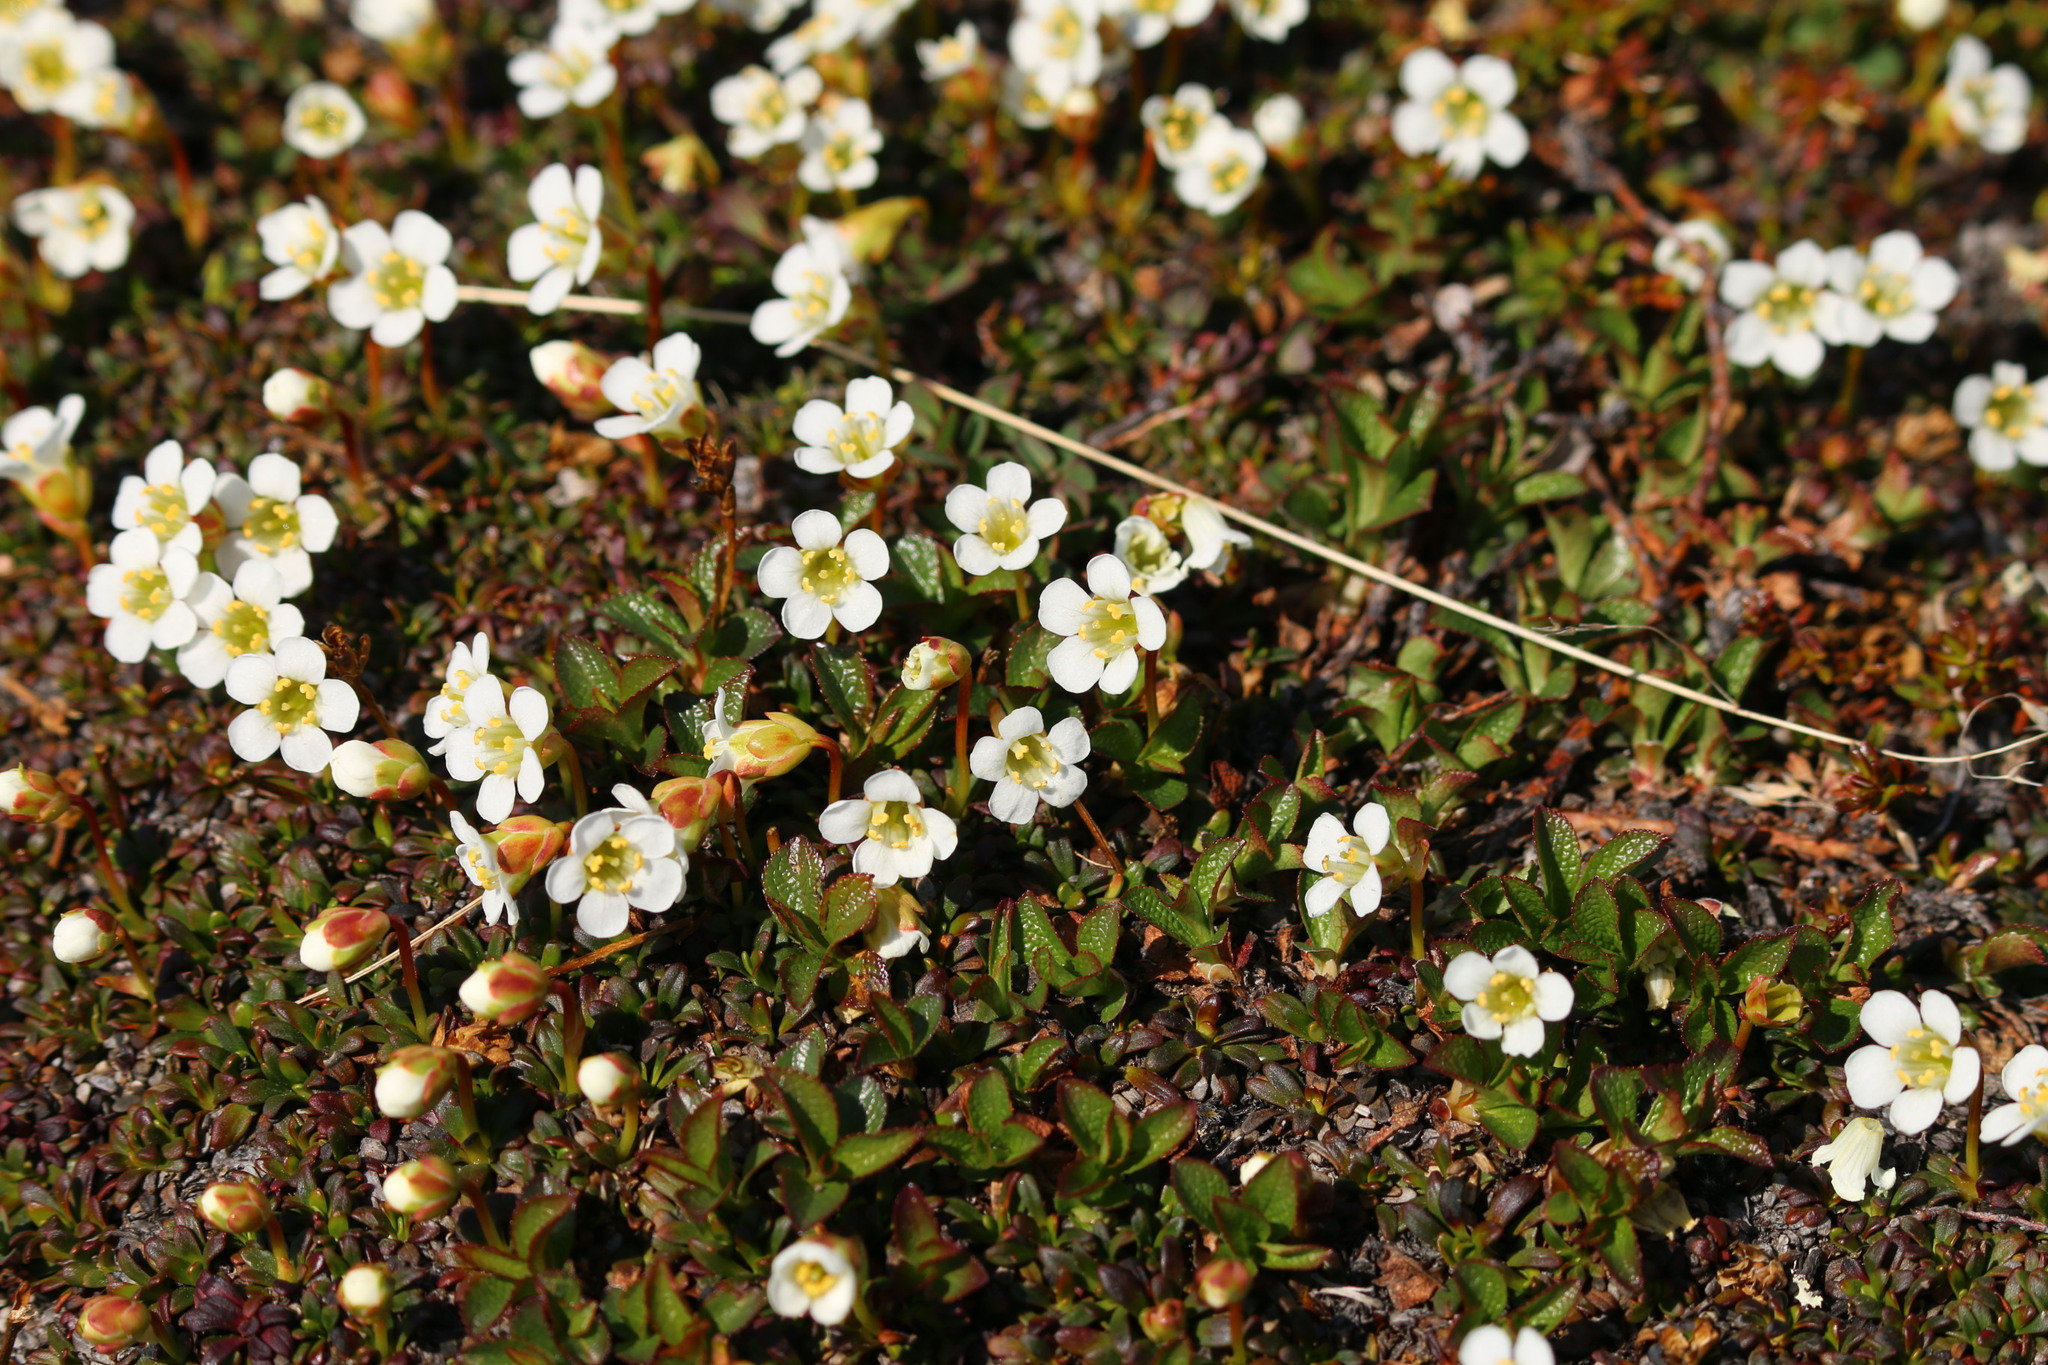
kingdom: Plantae
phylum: Tracheophyta
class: Magnoliopsida
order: Ericales
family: Diapensiaceae
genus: Diapensia
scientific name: Diapensia lapponica
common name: Diapensia
